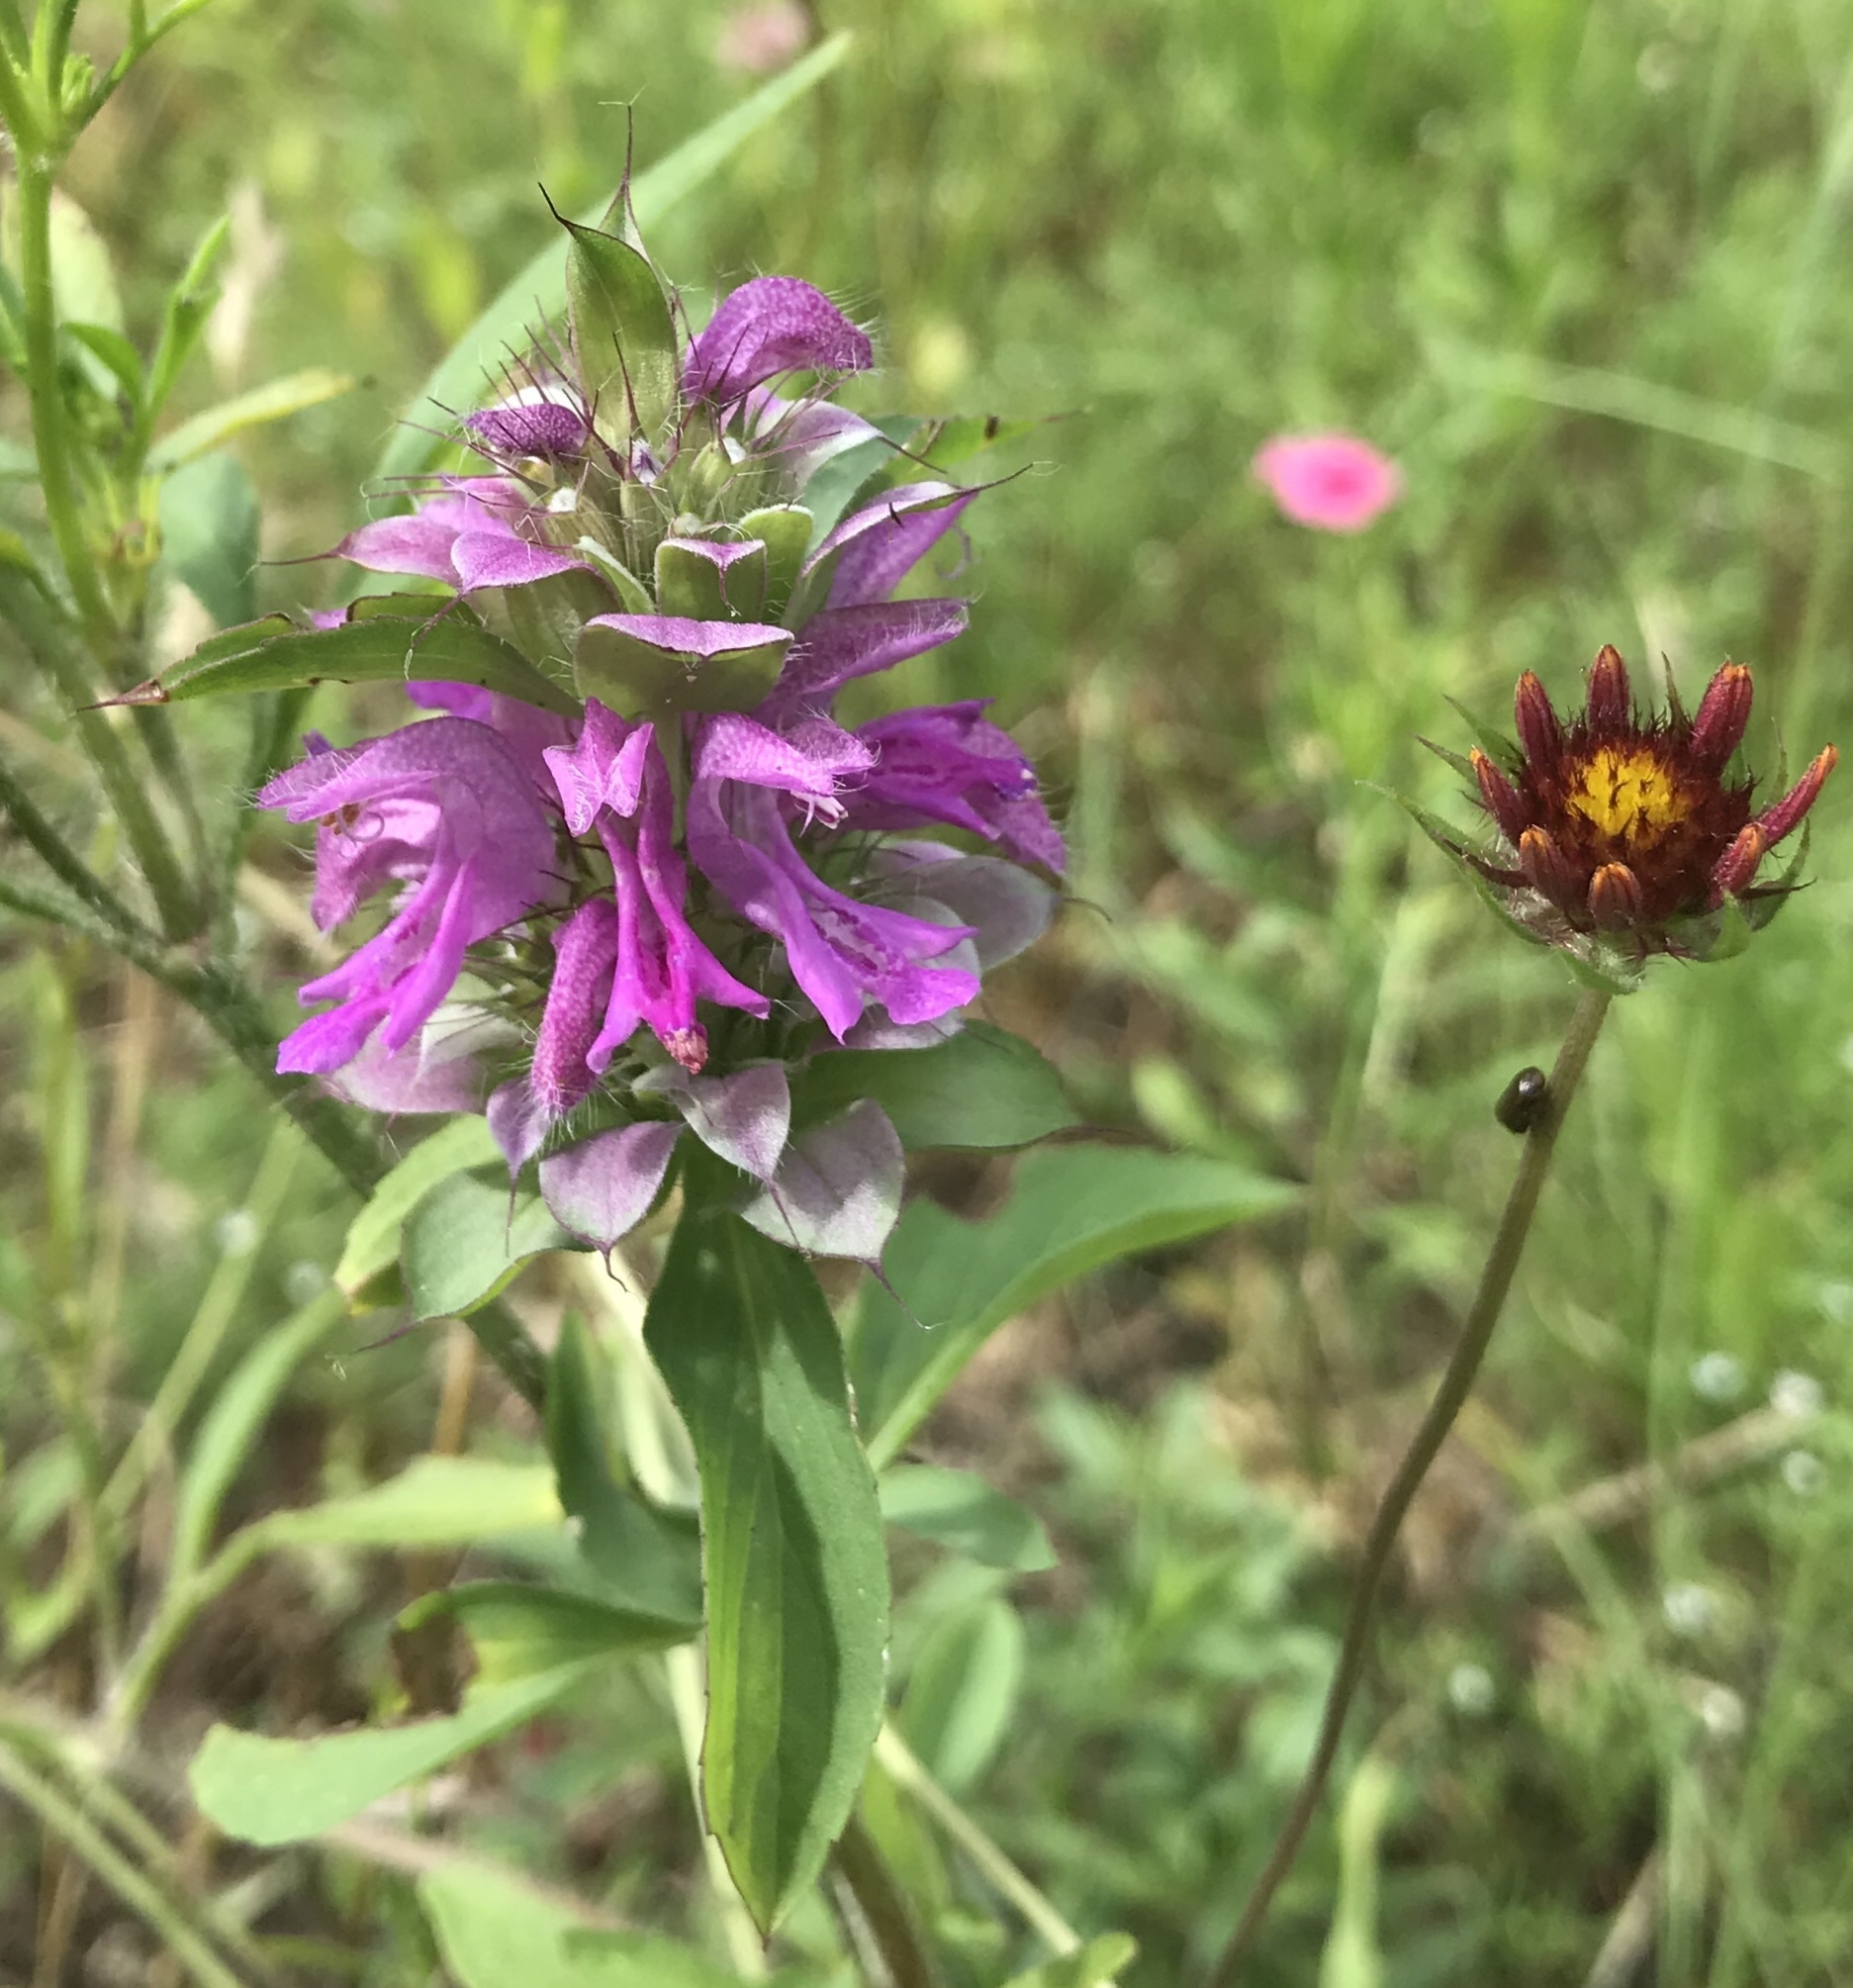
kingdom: Plantae
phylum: Tracheophyta
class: Magnoliopsida
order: Lamiales
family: Lamiaceae
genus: Monarda
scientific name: Monarda citriodora
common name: Lemon beebalm
